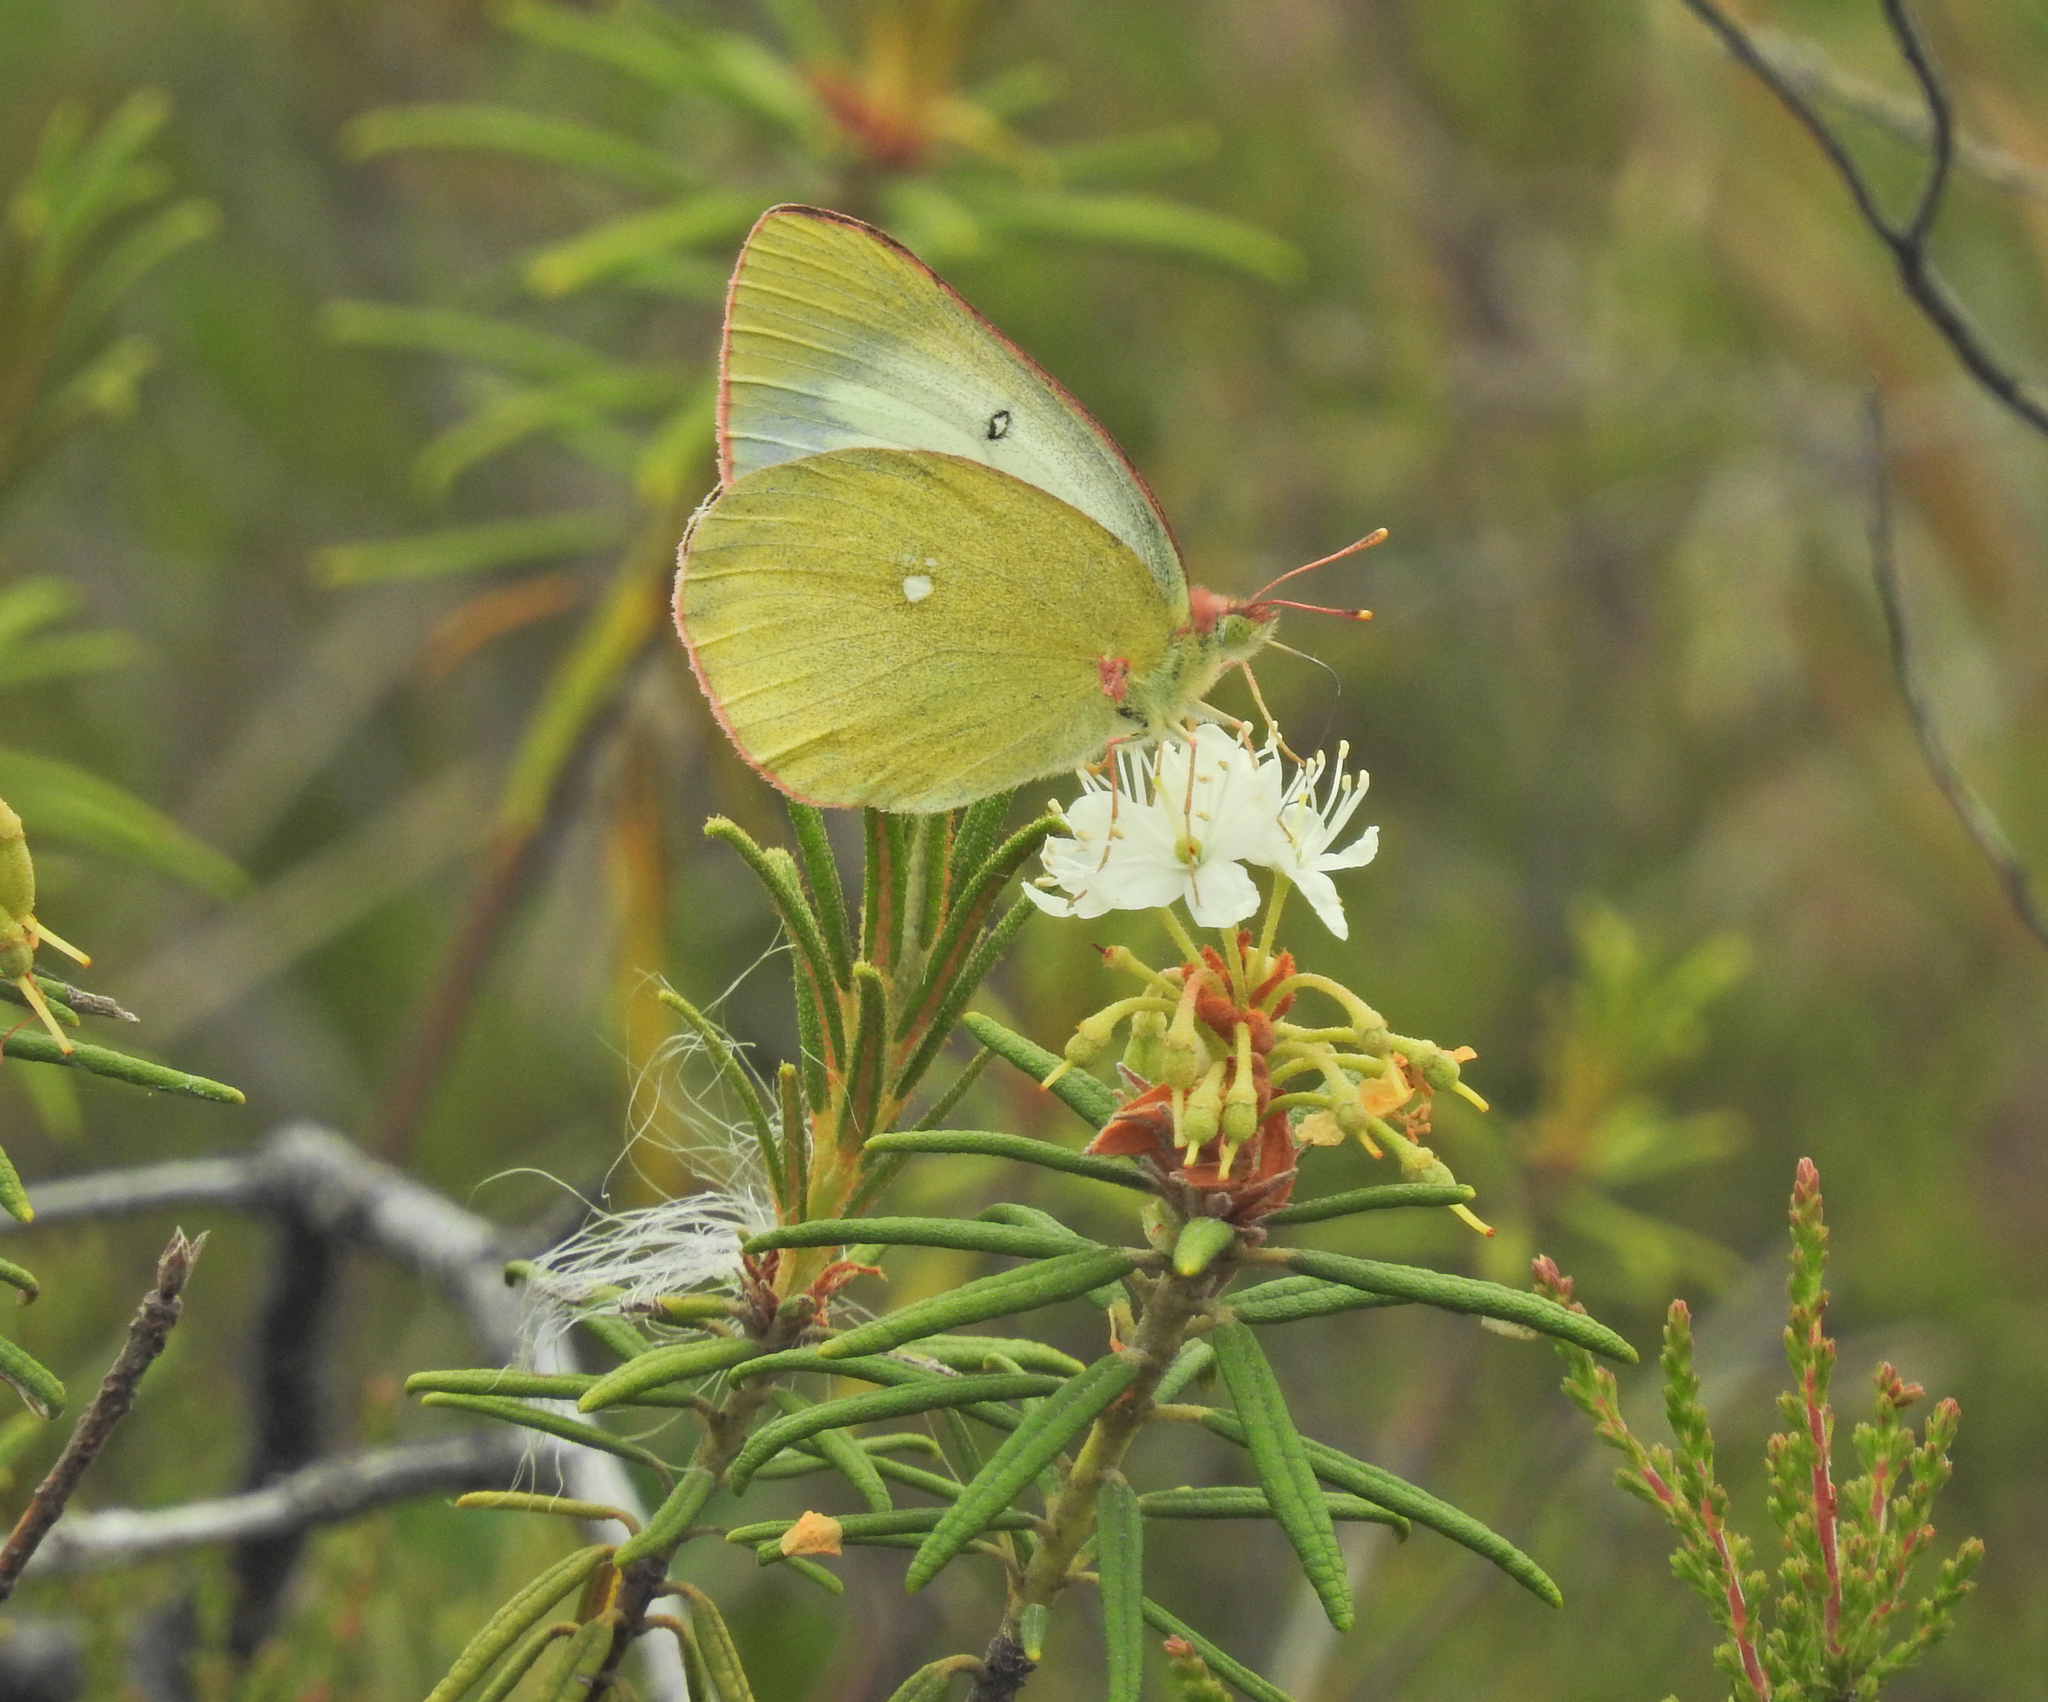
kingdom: Animalia
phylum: Arthropoda
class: Insecta
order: Lepidoptera
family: Pieridae
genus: Colias
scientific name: Colias palaeno
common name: Moorland clouded yellow
